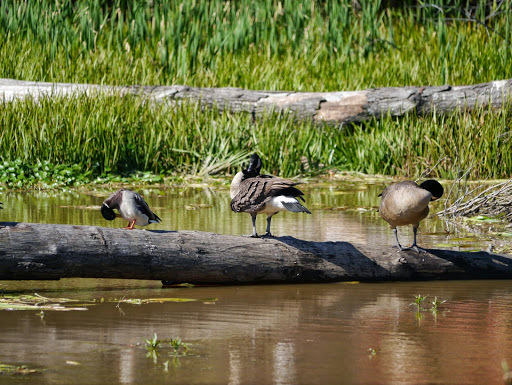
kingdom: Animalia
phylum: Chordata
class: Aves
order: Anseriformes
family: Anatidae
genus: Branta
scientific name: Branta canadensis
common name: Canada goose
